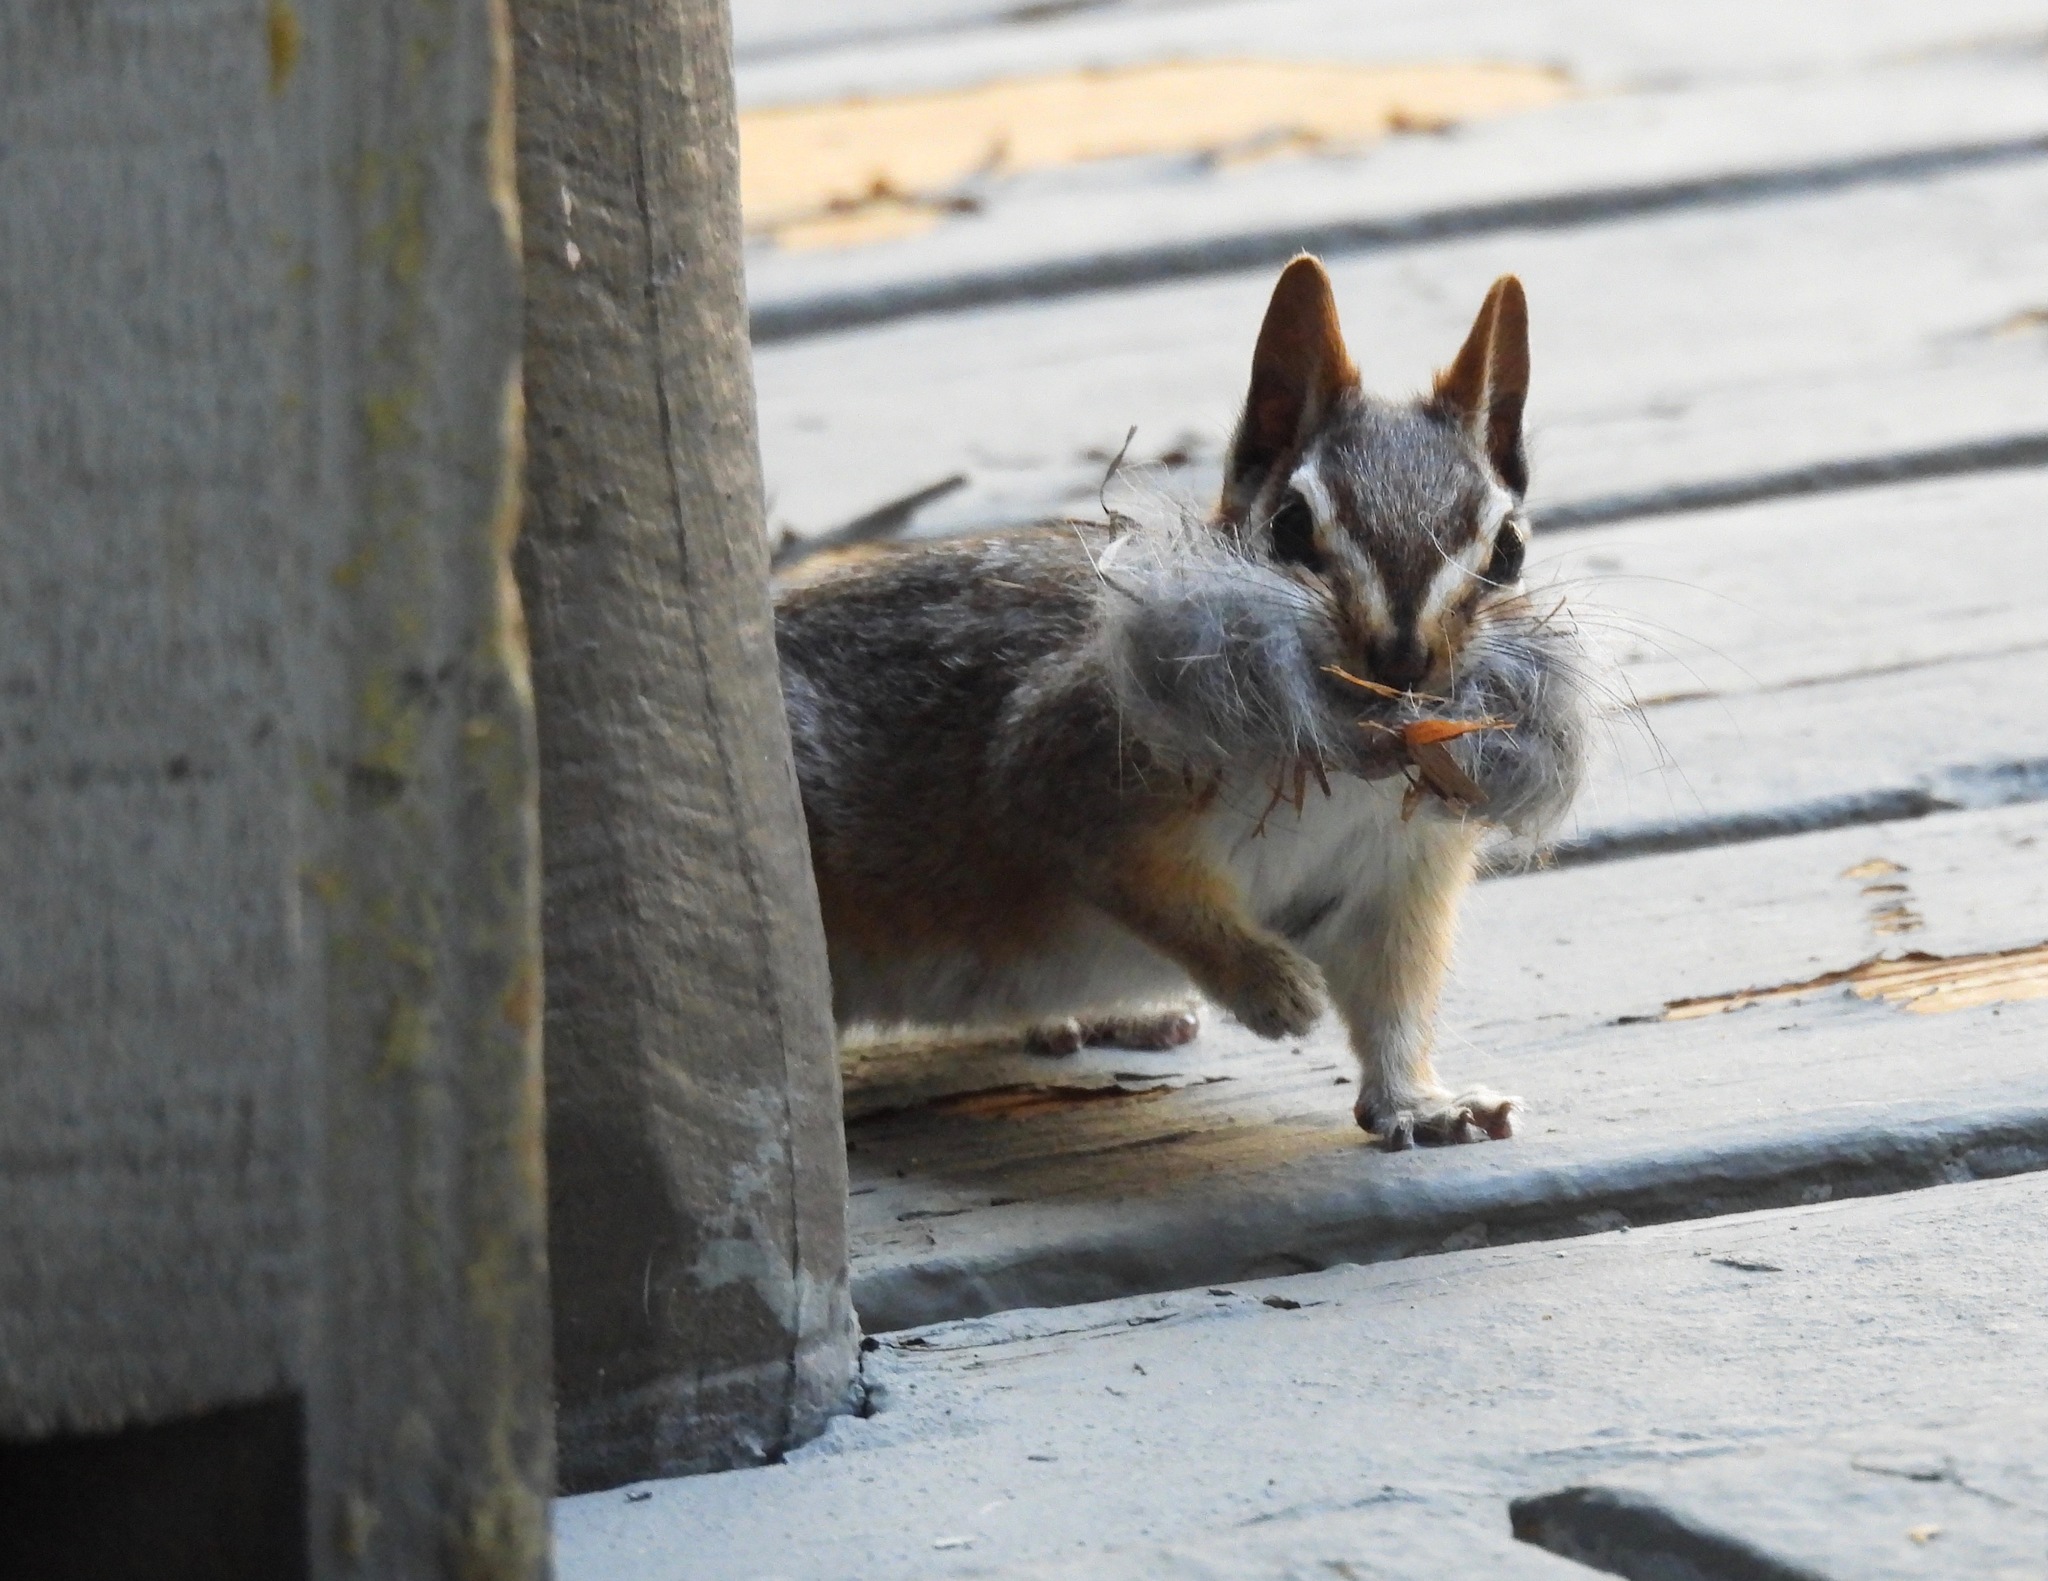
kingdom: Animalia
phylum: Chordata
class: Mammalia
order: Rodentia
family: Sciuridae
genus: Tamias
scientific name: Tamias dorsalis
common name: Cliff chipmunk
